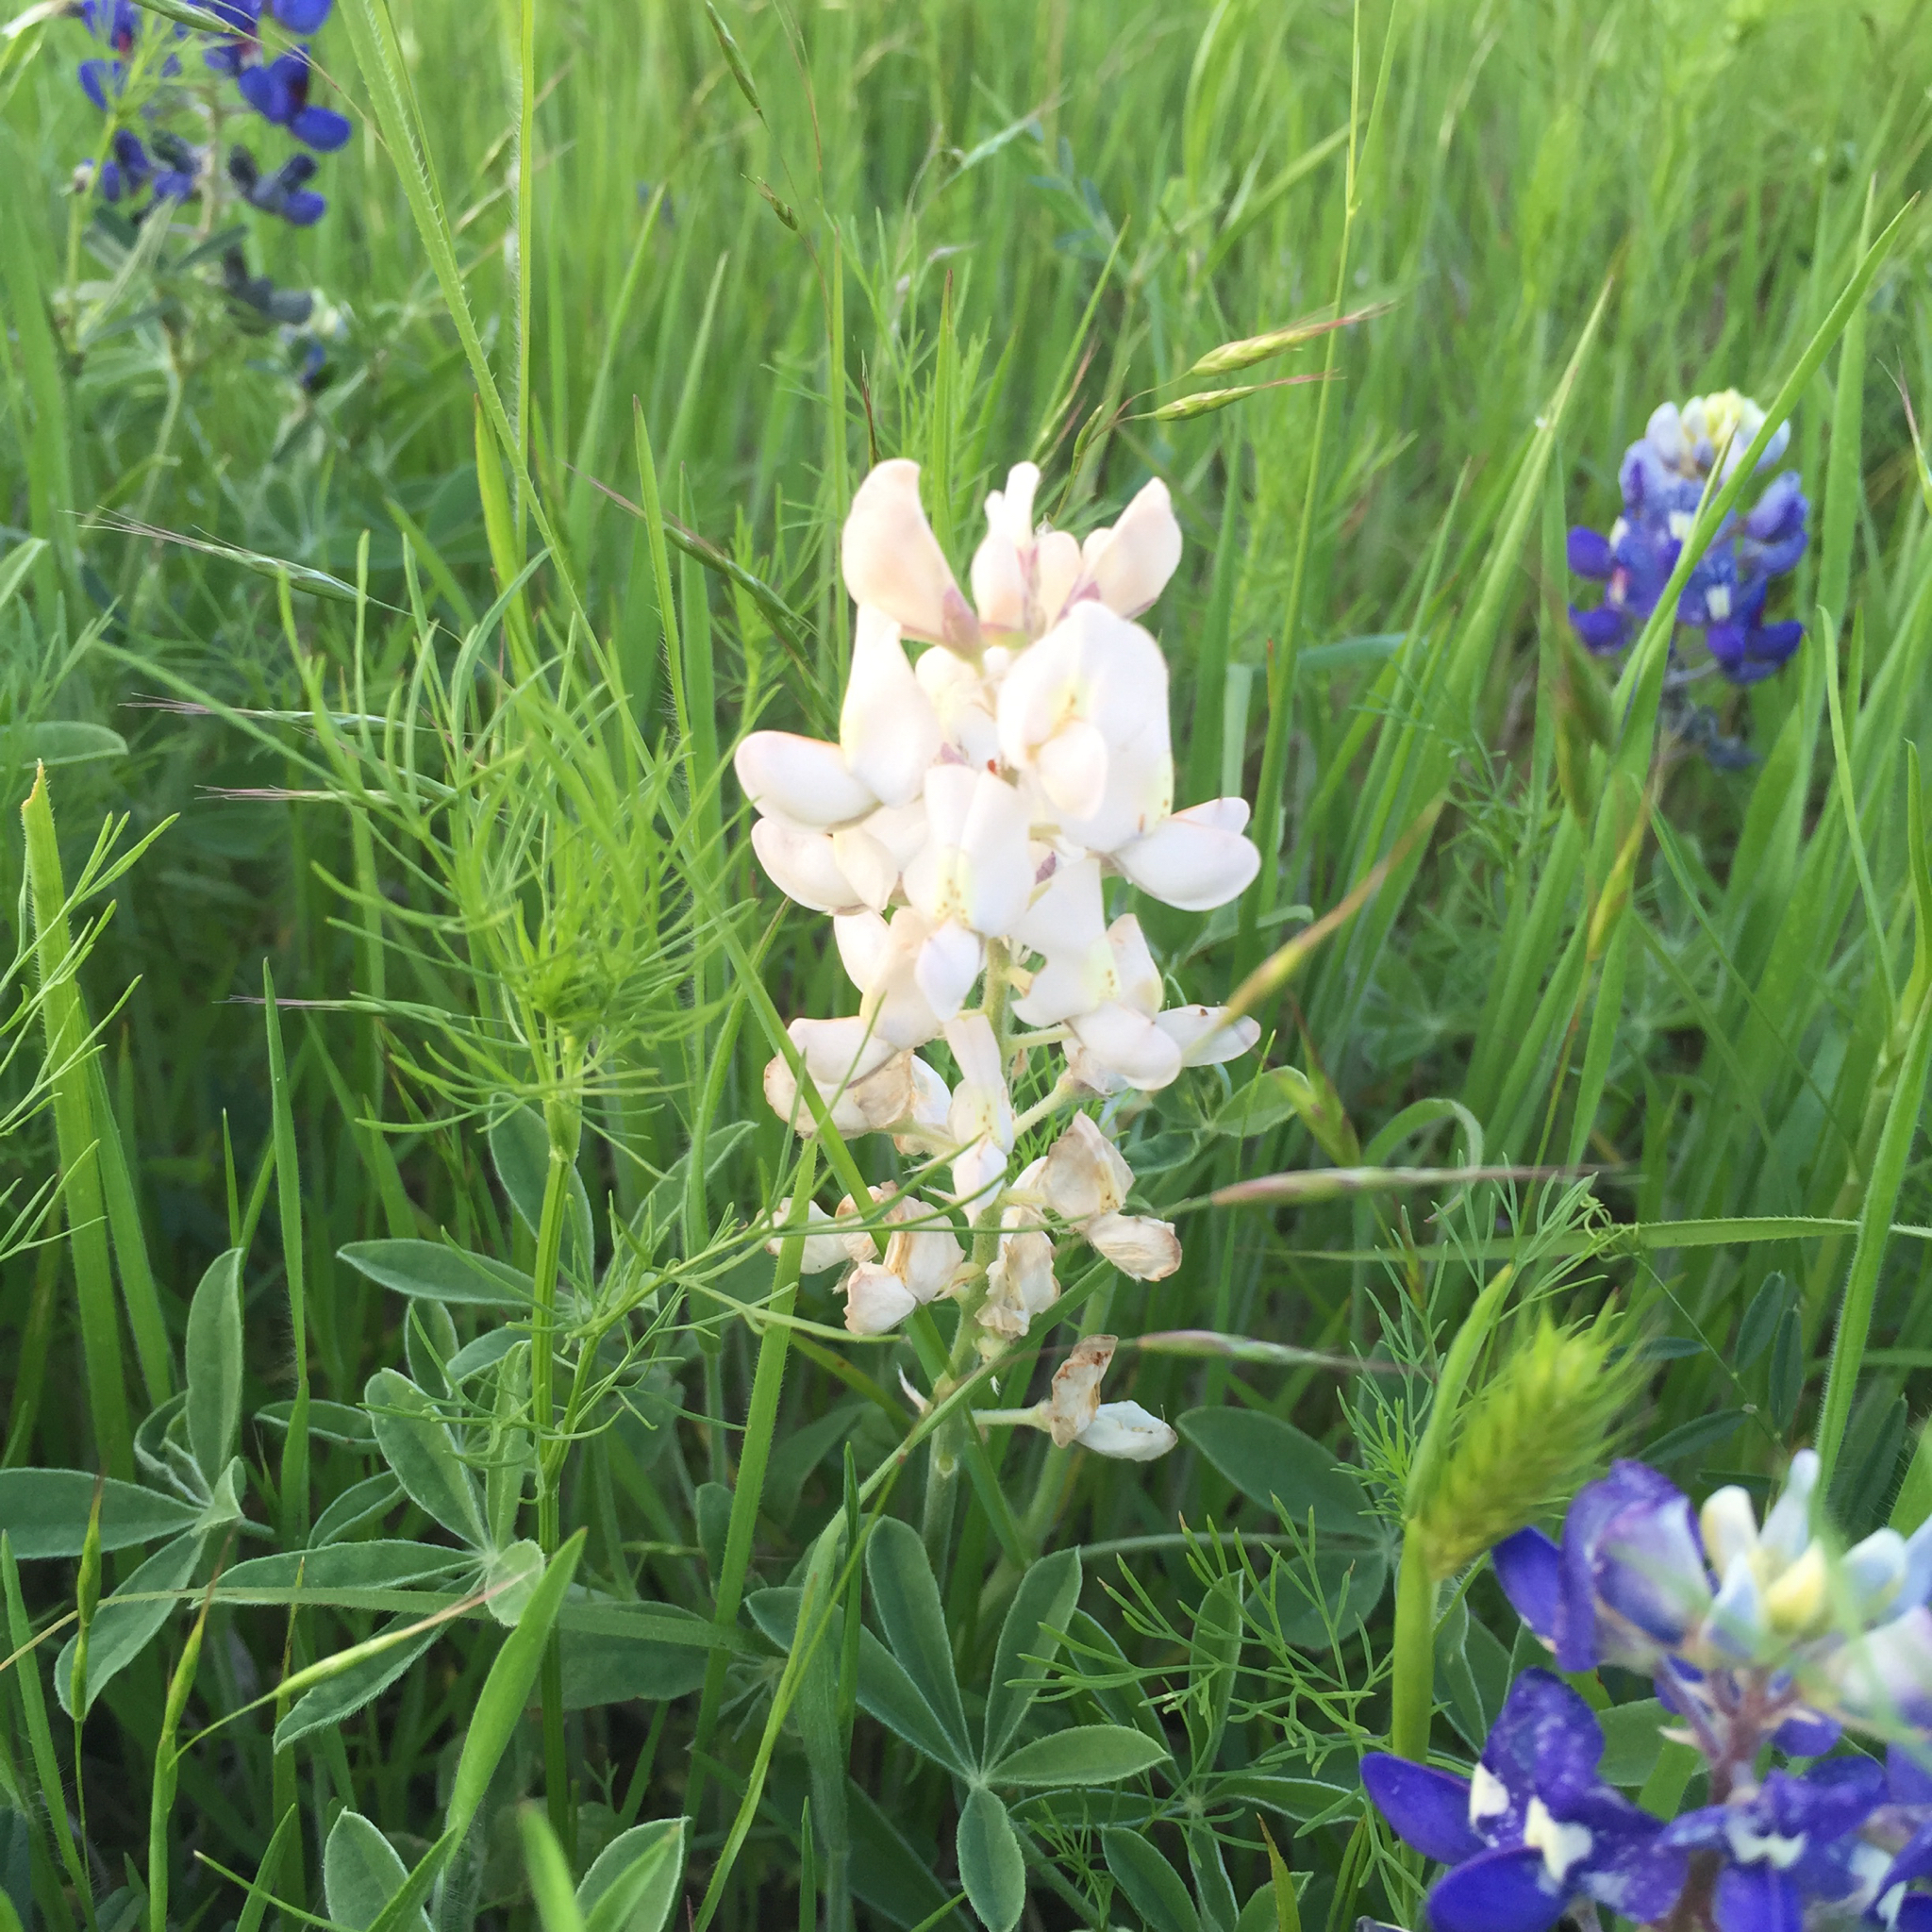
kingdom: Plantae
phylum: Tracheophyta
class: Magnoliopsida
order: Fabales
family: Fabaceae
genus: Lupinus
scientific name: Lupinus texensis
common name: Texas bluebonnet
